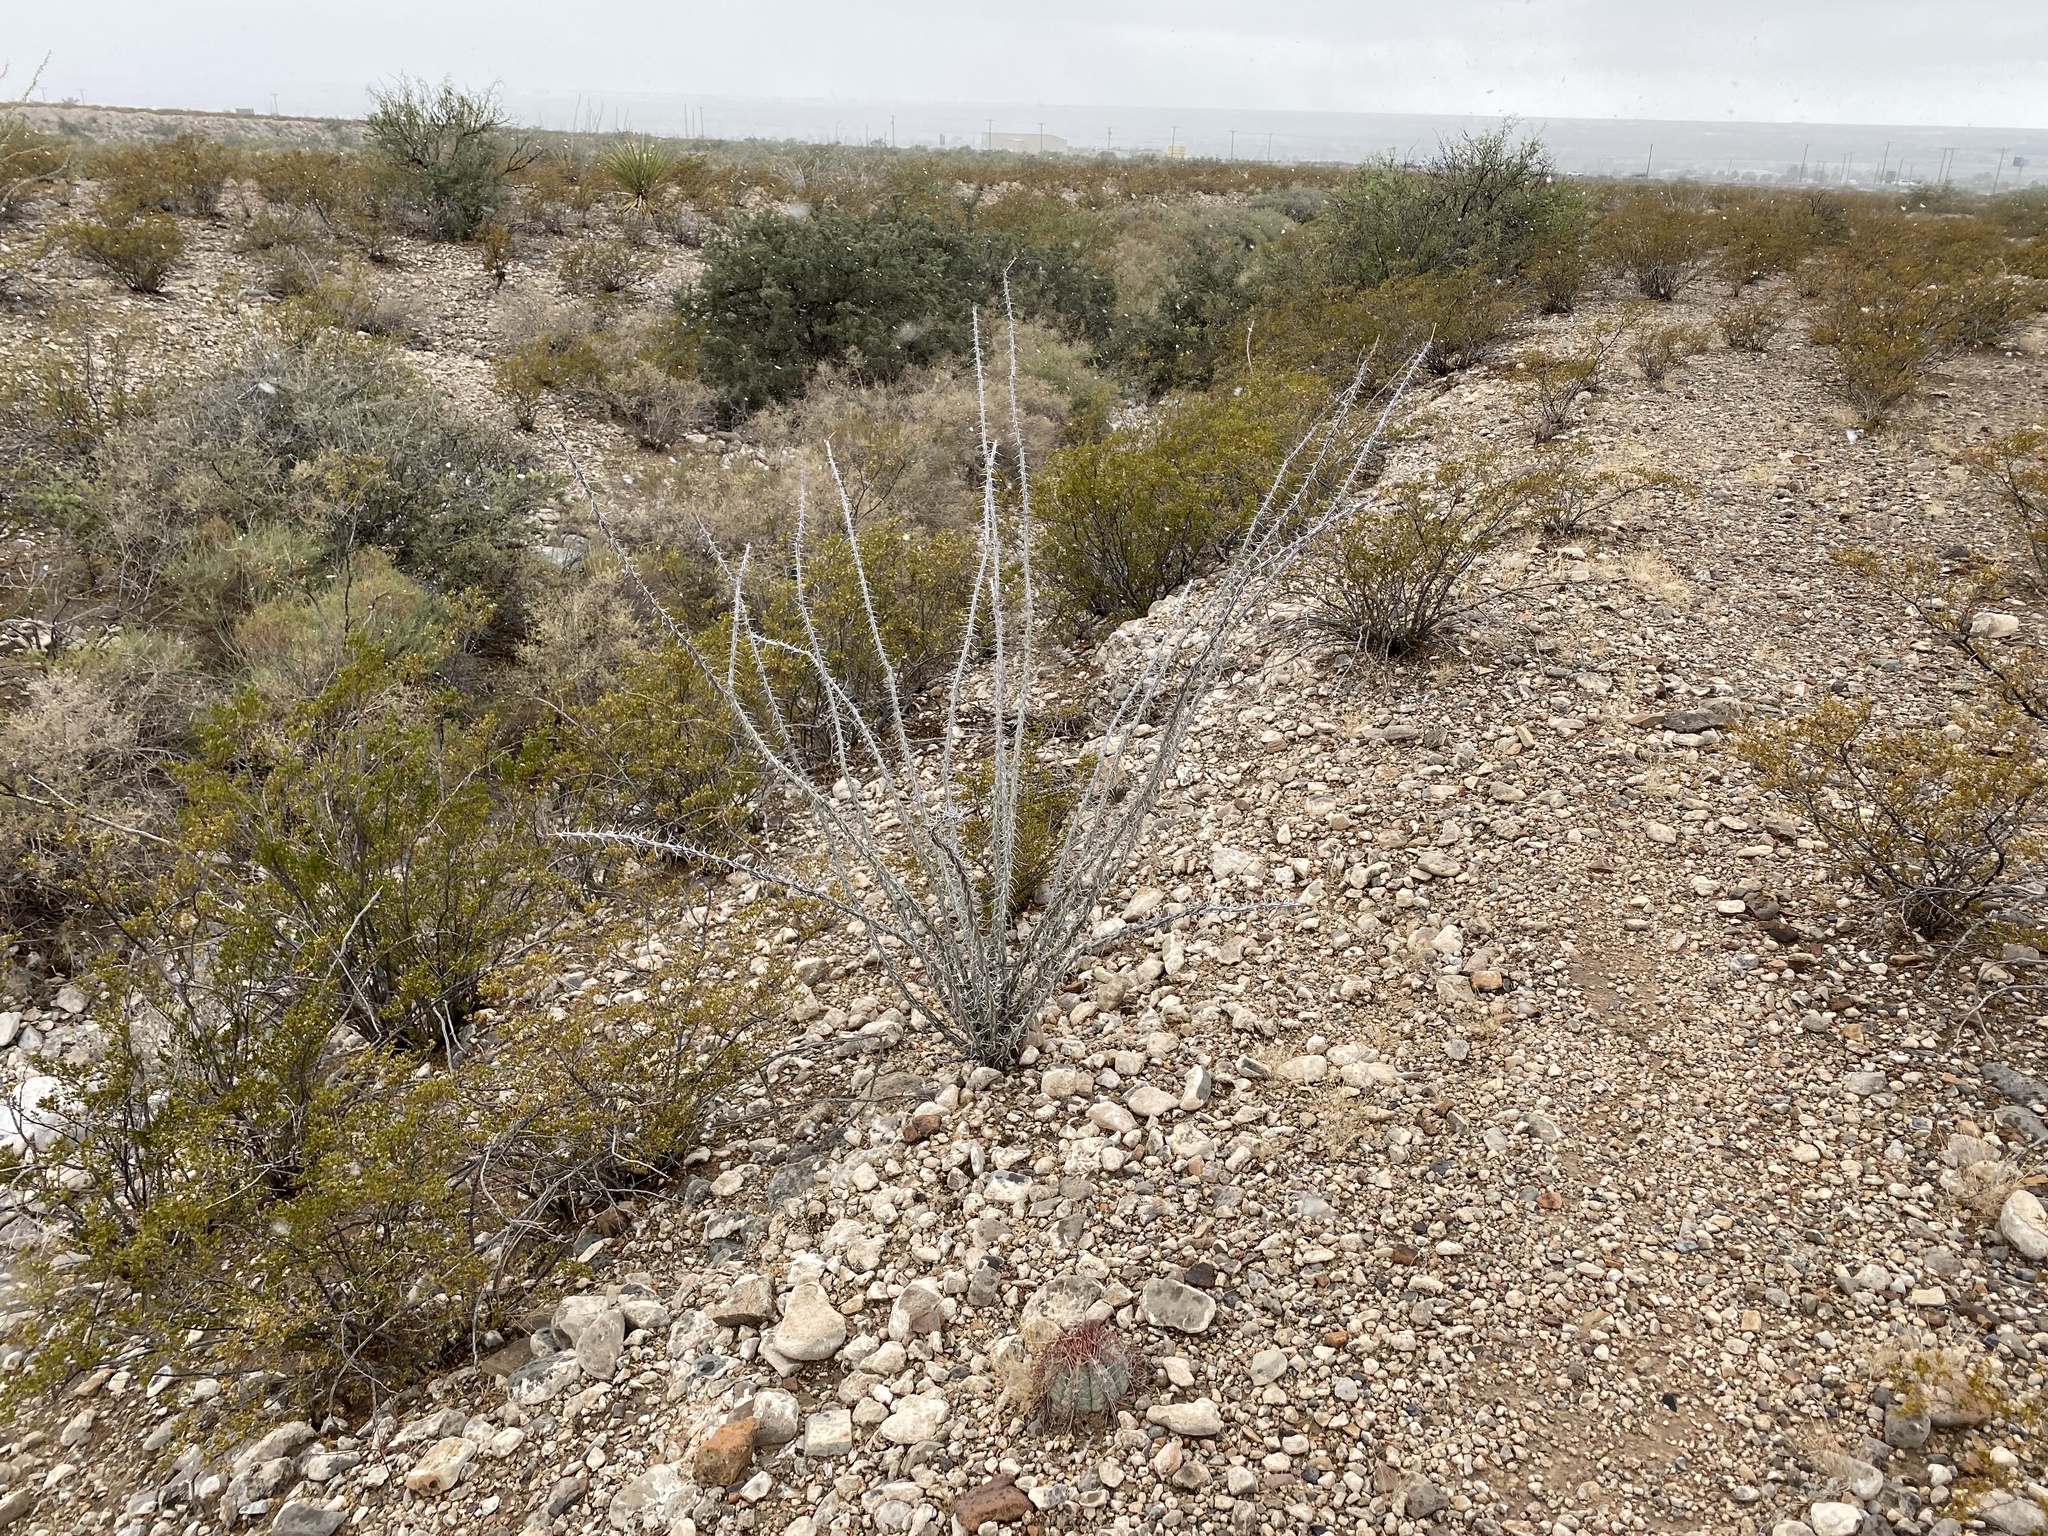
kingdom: Plantae
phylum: Tracheophyta
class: Magnoliopsida
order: Ericales
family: Fouquieriaceae
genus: Fouquieria
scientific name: Fouquieria splendens
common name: Vine-cactus
